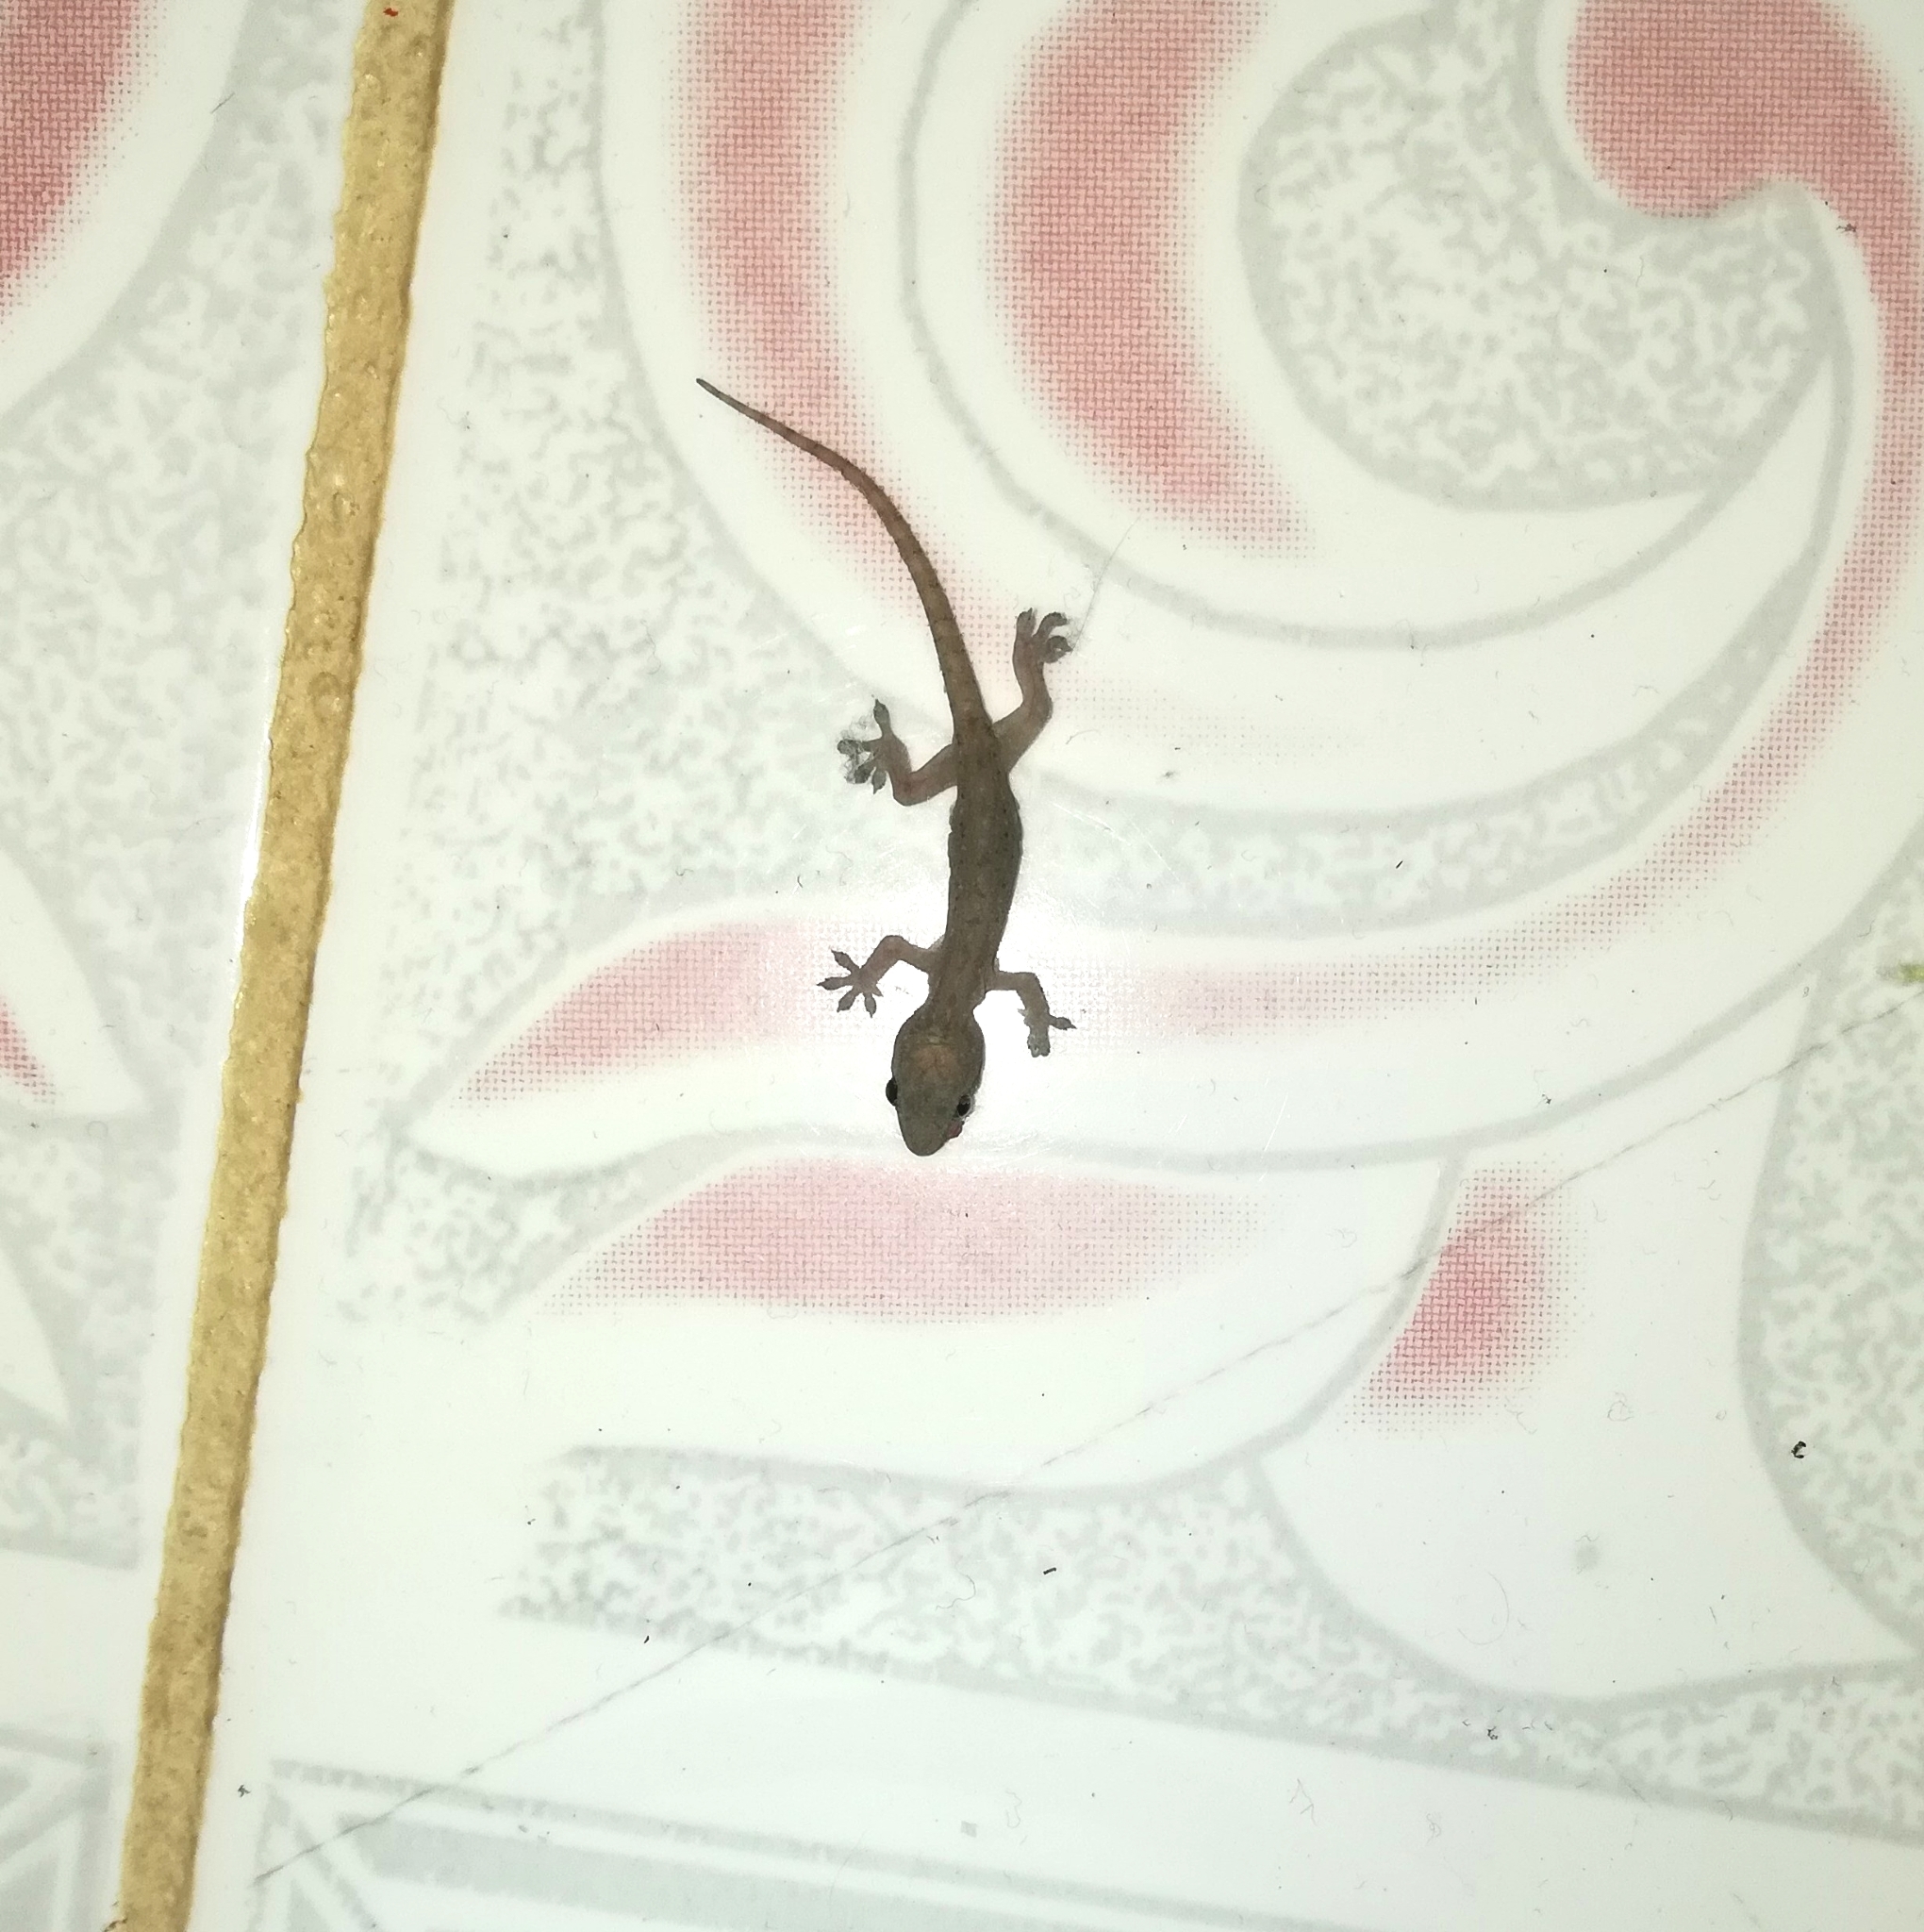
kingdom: Animalia
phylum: Chordata
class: Squamata
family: Gekkonidae
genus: Hemidactylus
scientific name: Hemidactylus frenatus
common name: Common house gecko
